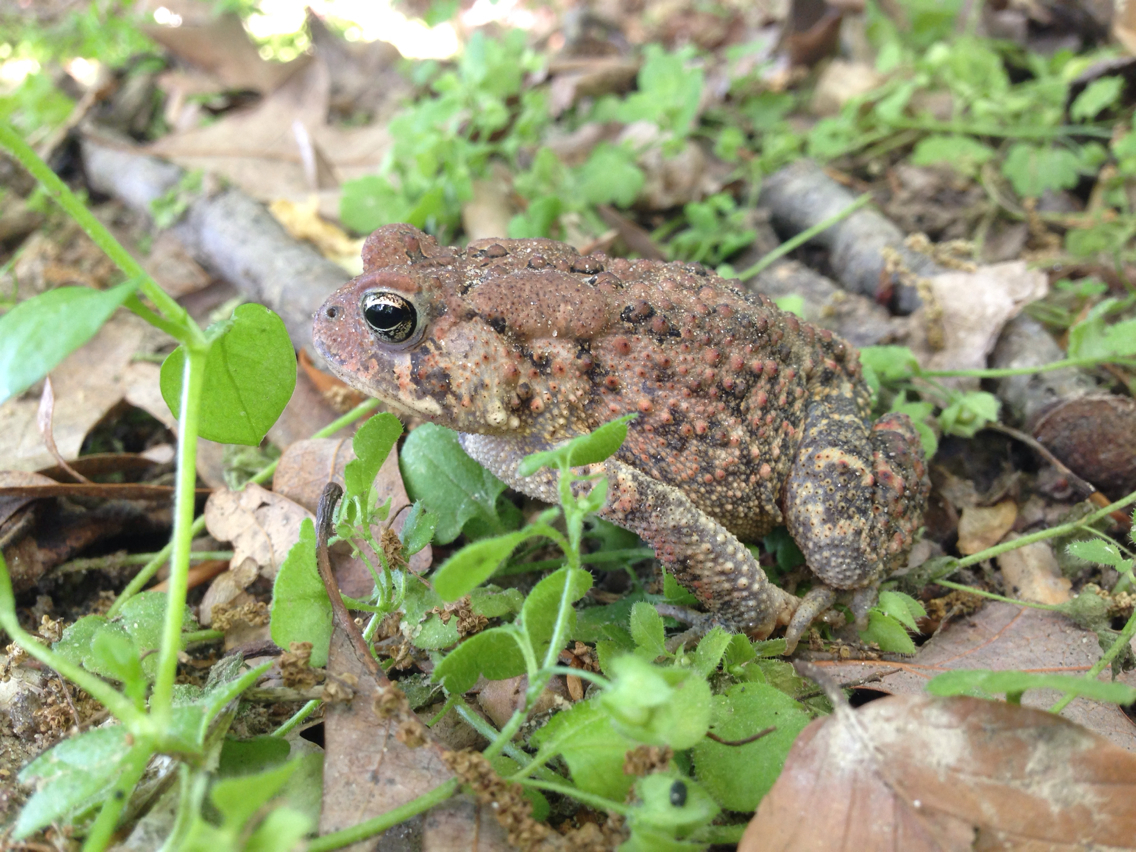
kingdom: Animalia
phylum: Chordata
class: Amphibia
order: Anura
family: Bufonidae
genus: Anaxyrus
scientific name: Anaxyrus americanus
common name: American toad
